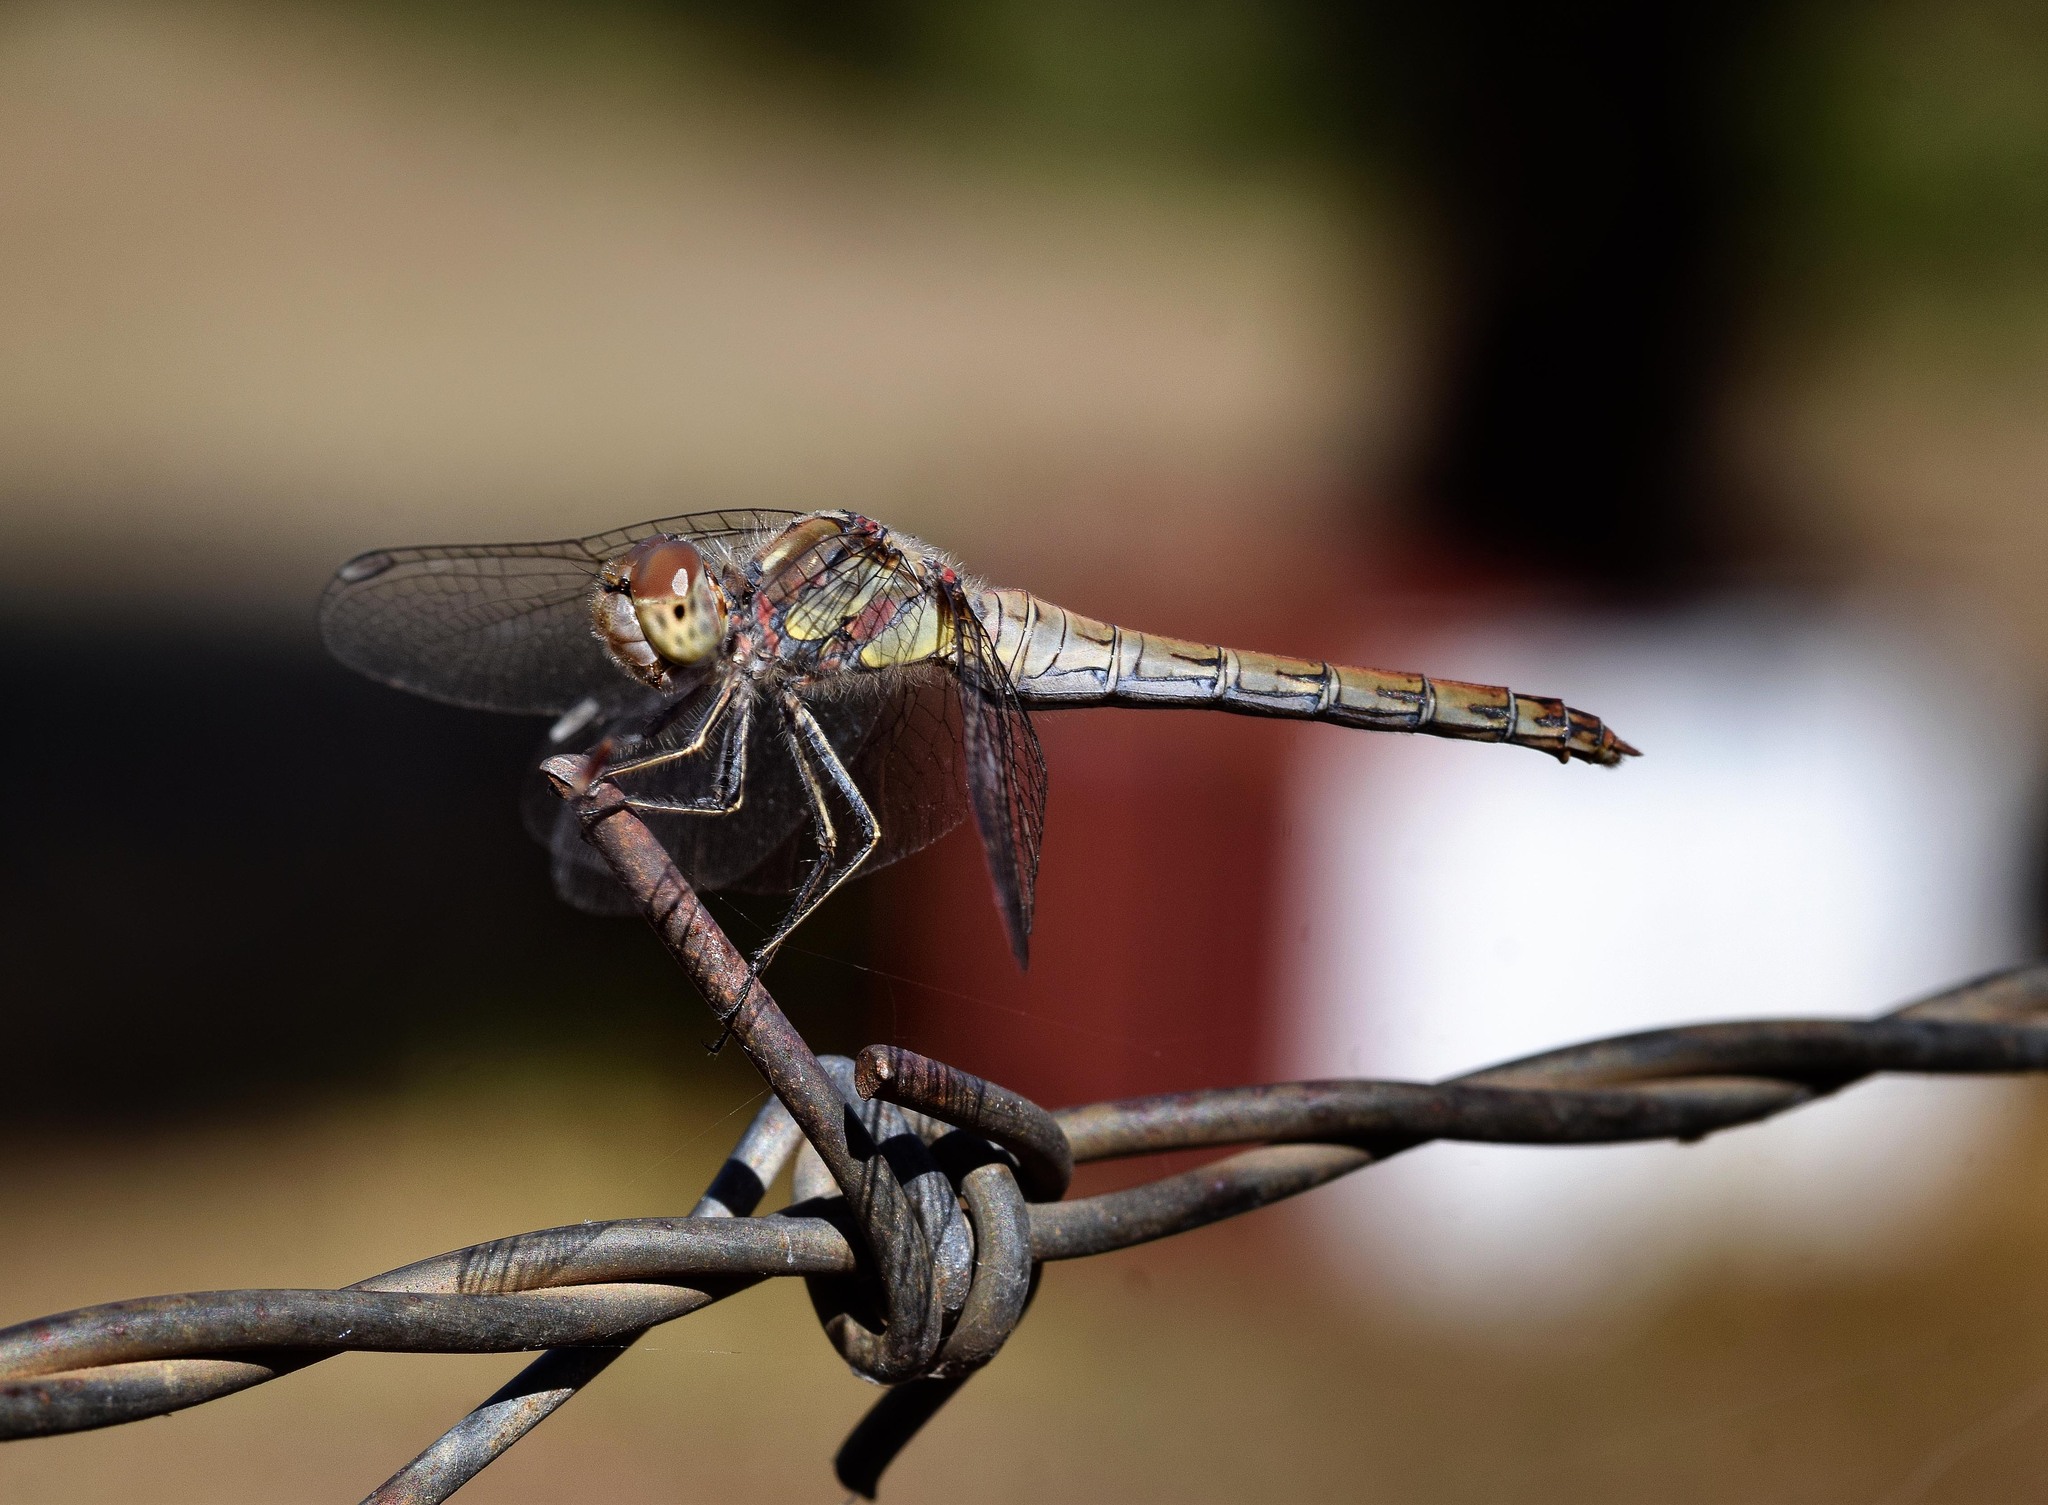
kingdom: Animalia
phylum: Arthropoda
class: Insecta
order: Odonata
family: Libellulidae
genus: Sympetrum
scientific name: Sympetrum striolatum
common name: Common darter
